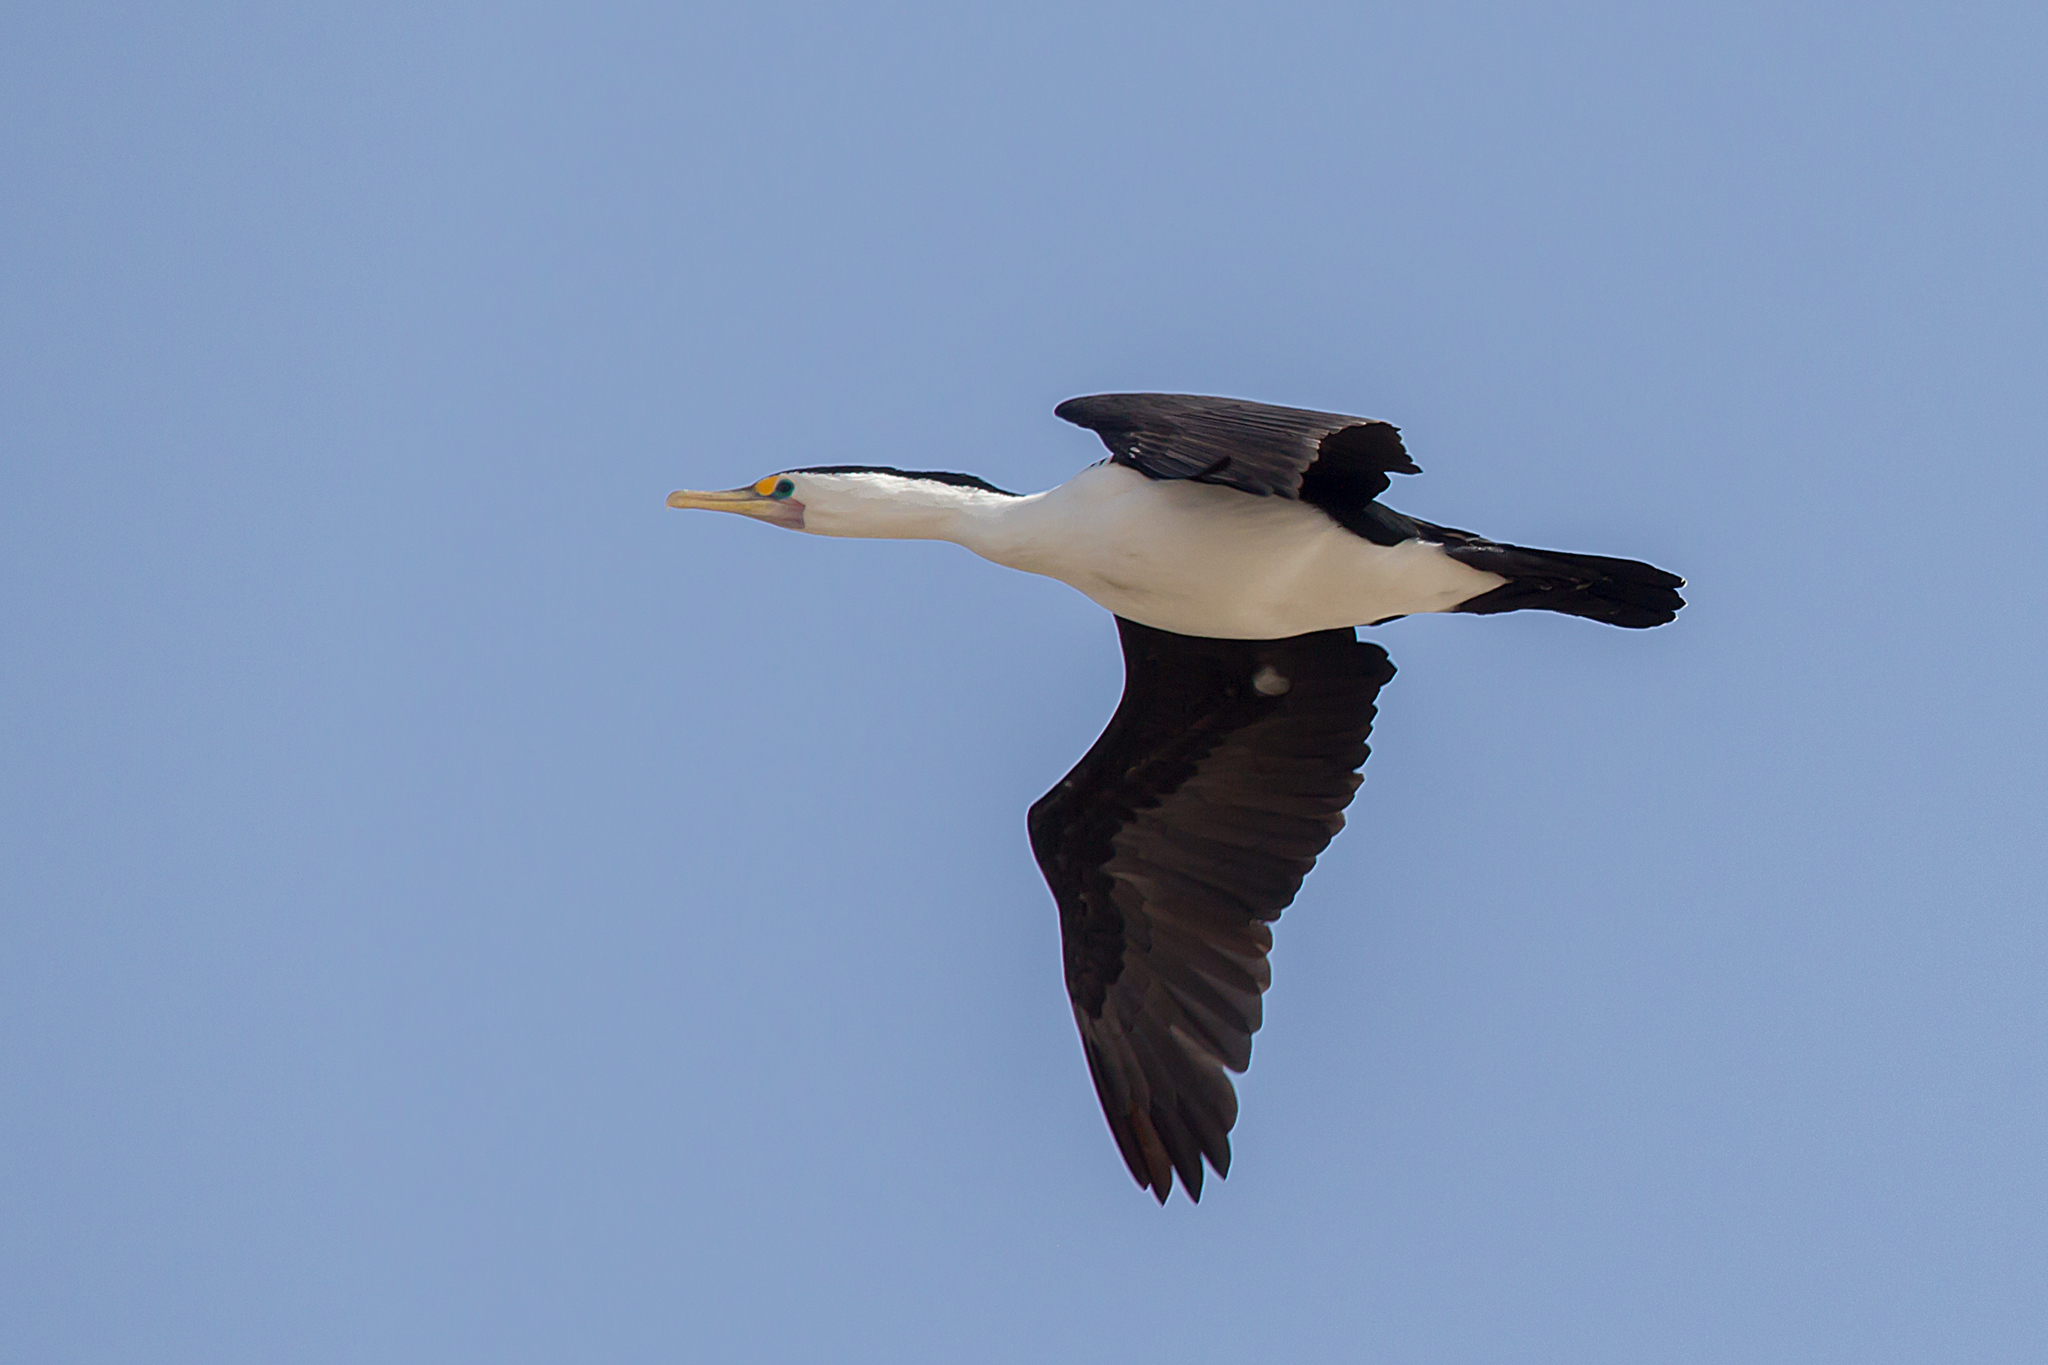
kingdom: Animalia
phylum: Chordata
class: Aves
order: Suliformes
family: Phalacrocoracidae
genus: Phalacrocorax
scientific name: Phalacrocorax varius
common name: Pied cormorant
